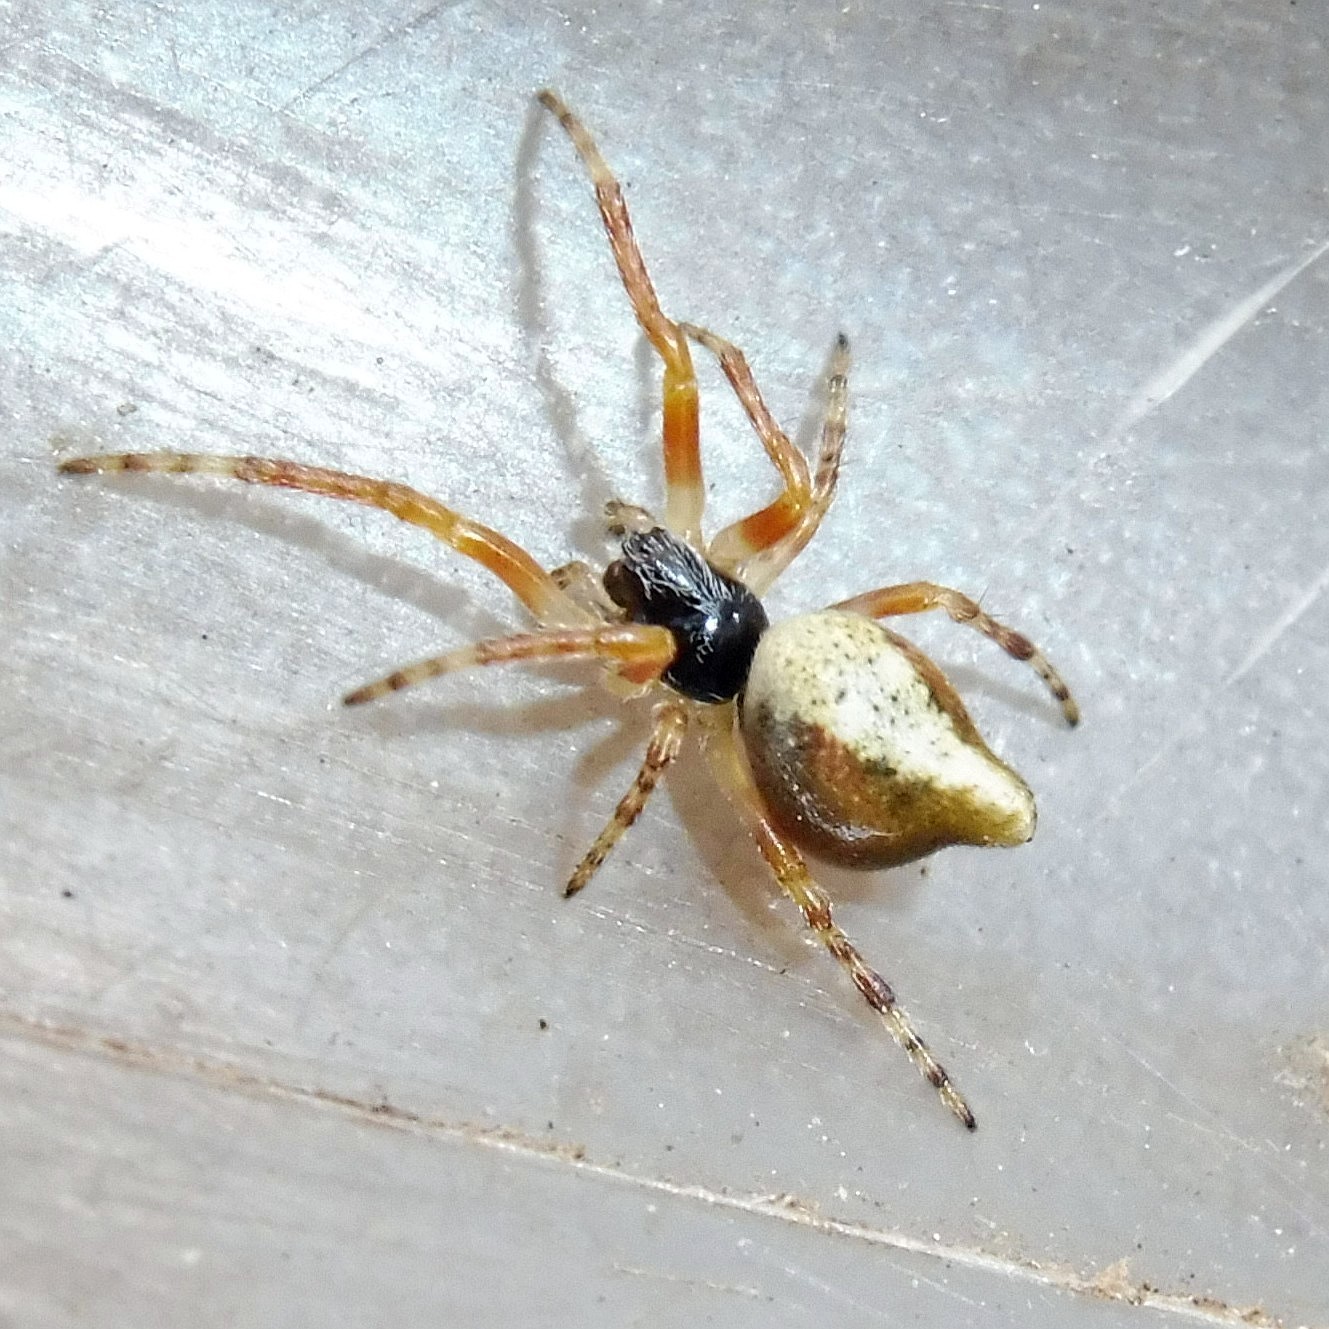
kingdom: Animalia
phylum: Arthropoda
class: Arachnida
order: Araneae
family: Araneidae
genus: Cyclosa
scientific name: Cyclosa conica
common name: Conical trashline orbweaver
